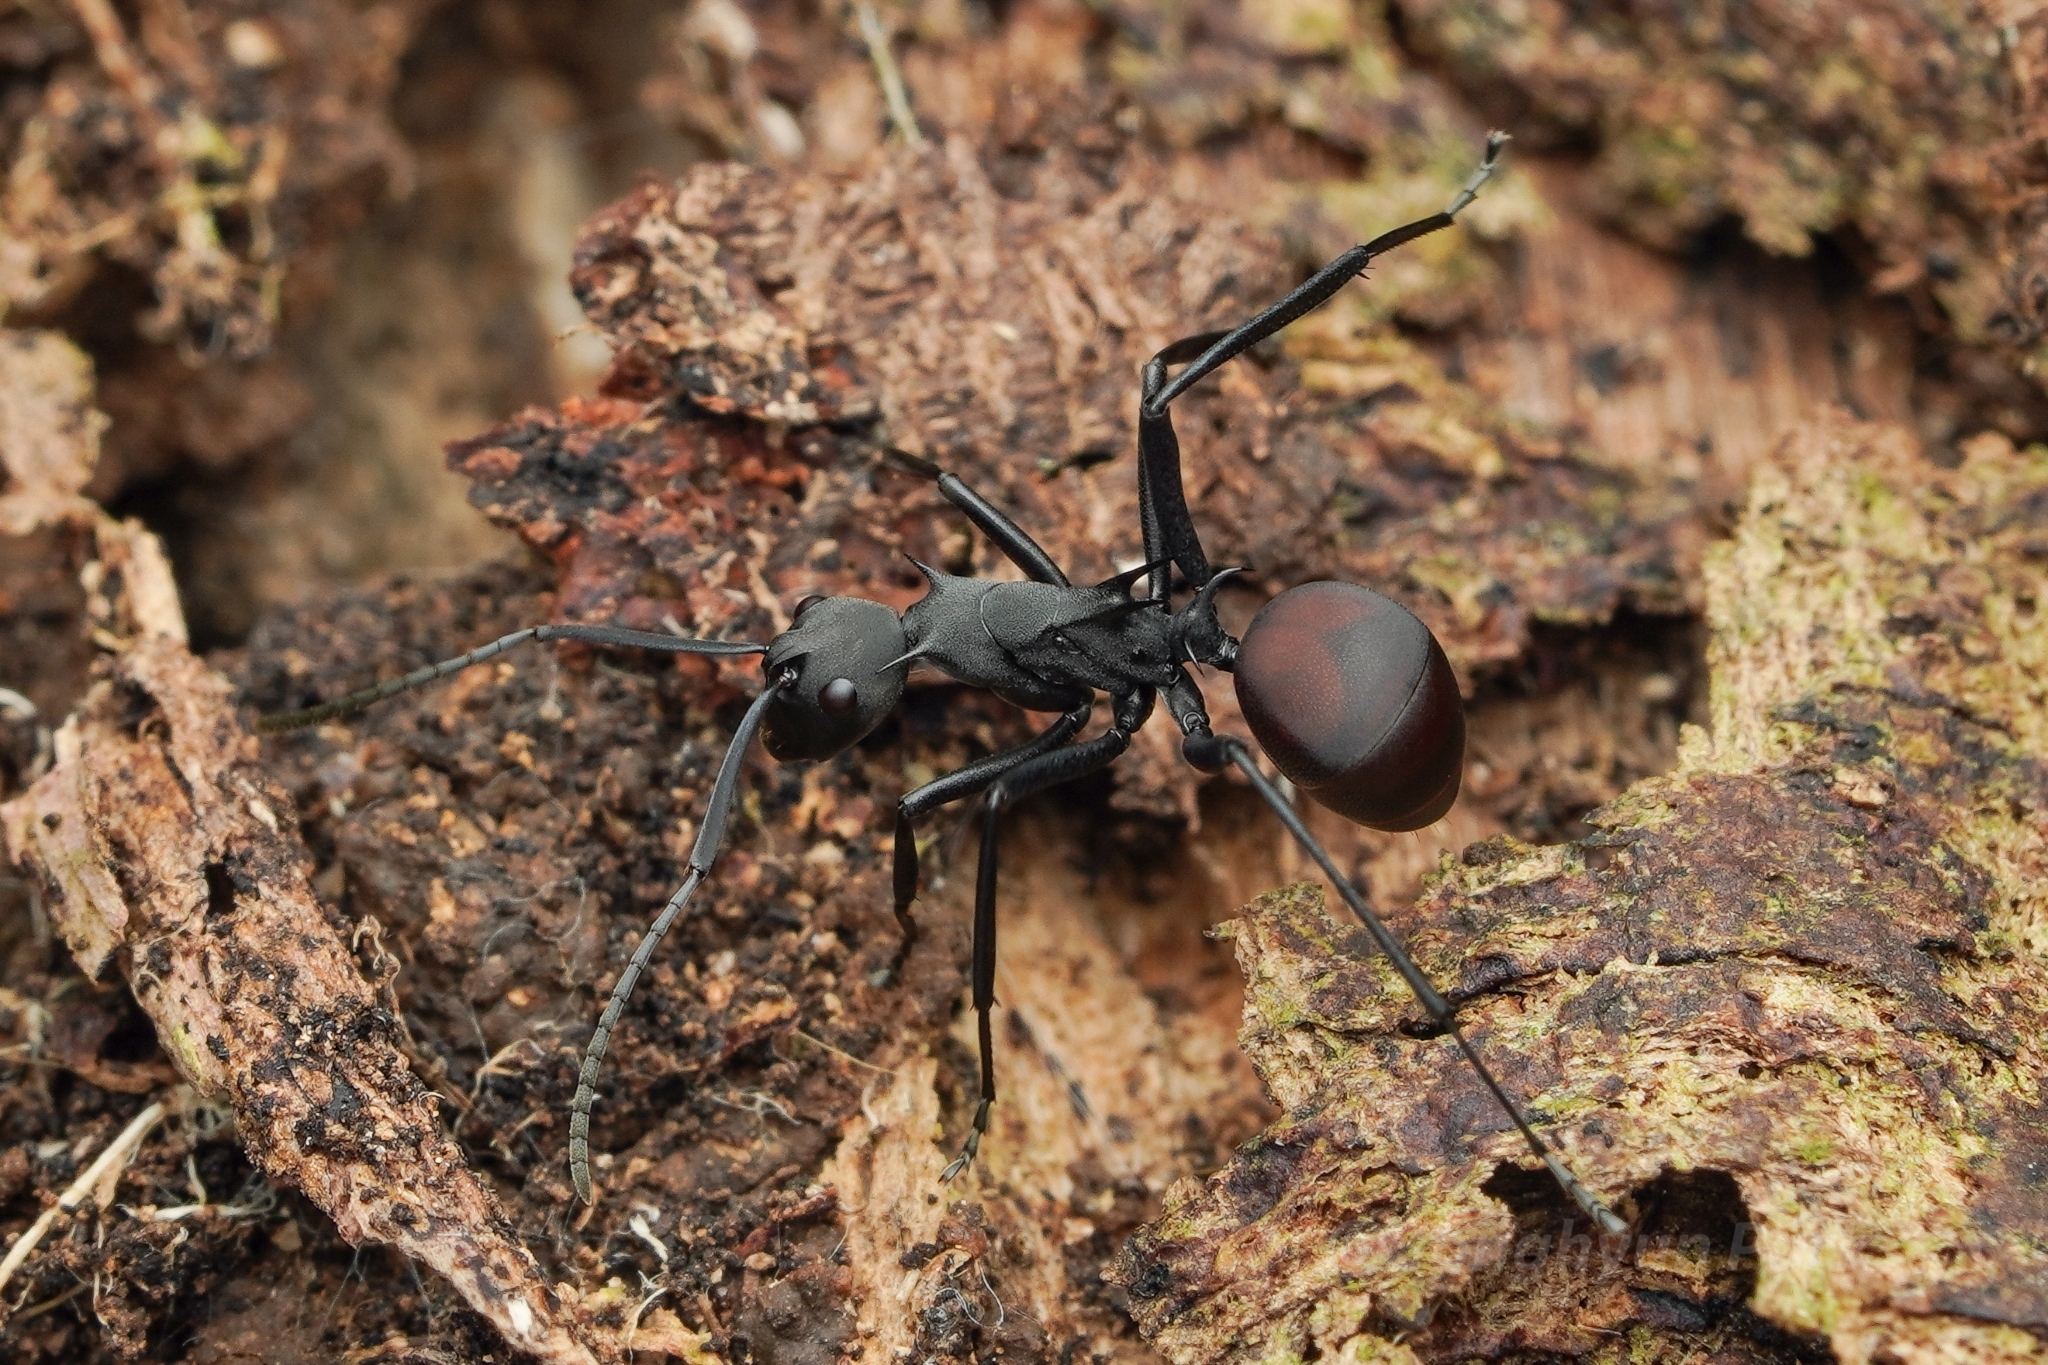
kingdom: Animalia
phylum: Arthropoda
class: Insecta
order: Hymenoptera
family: Formicidae
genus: Polyrhachis
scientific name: Polyrhachis abdominalis
